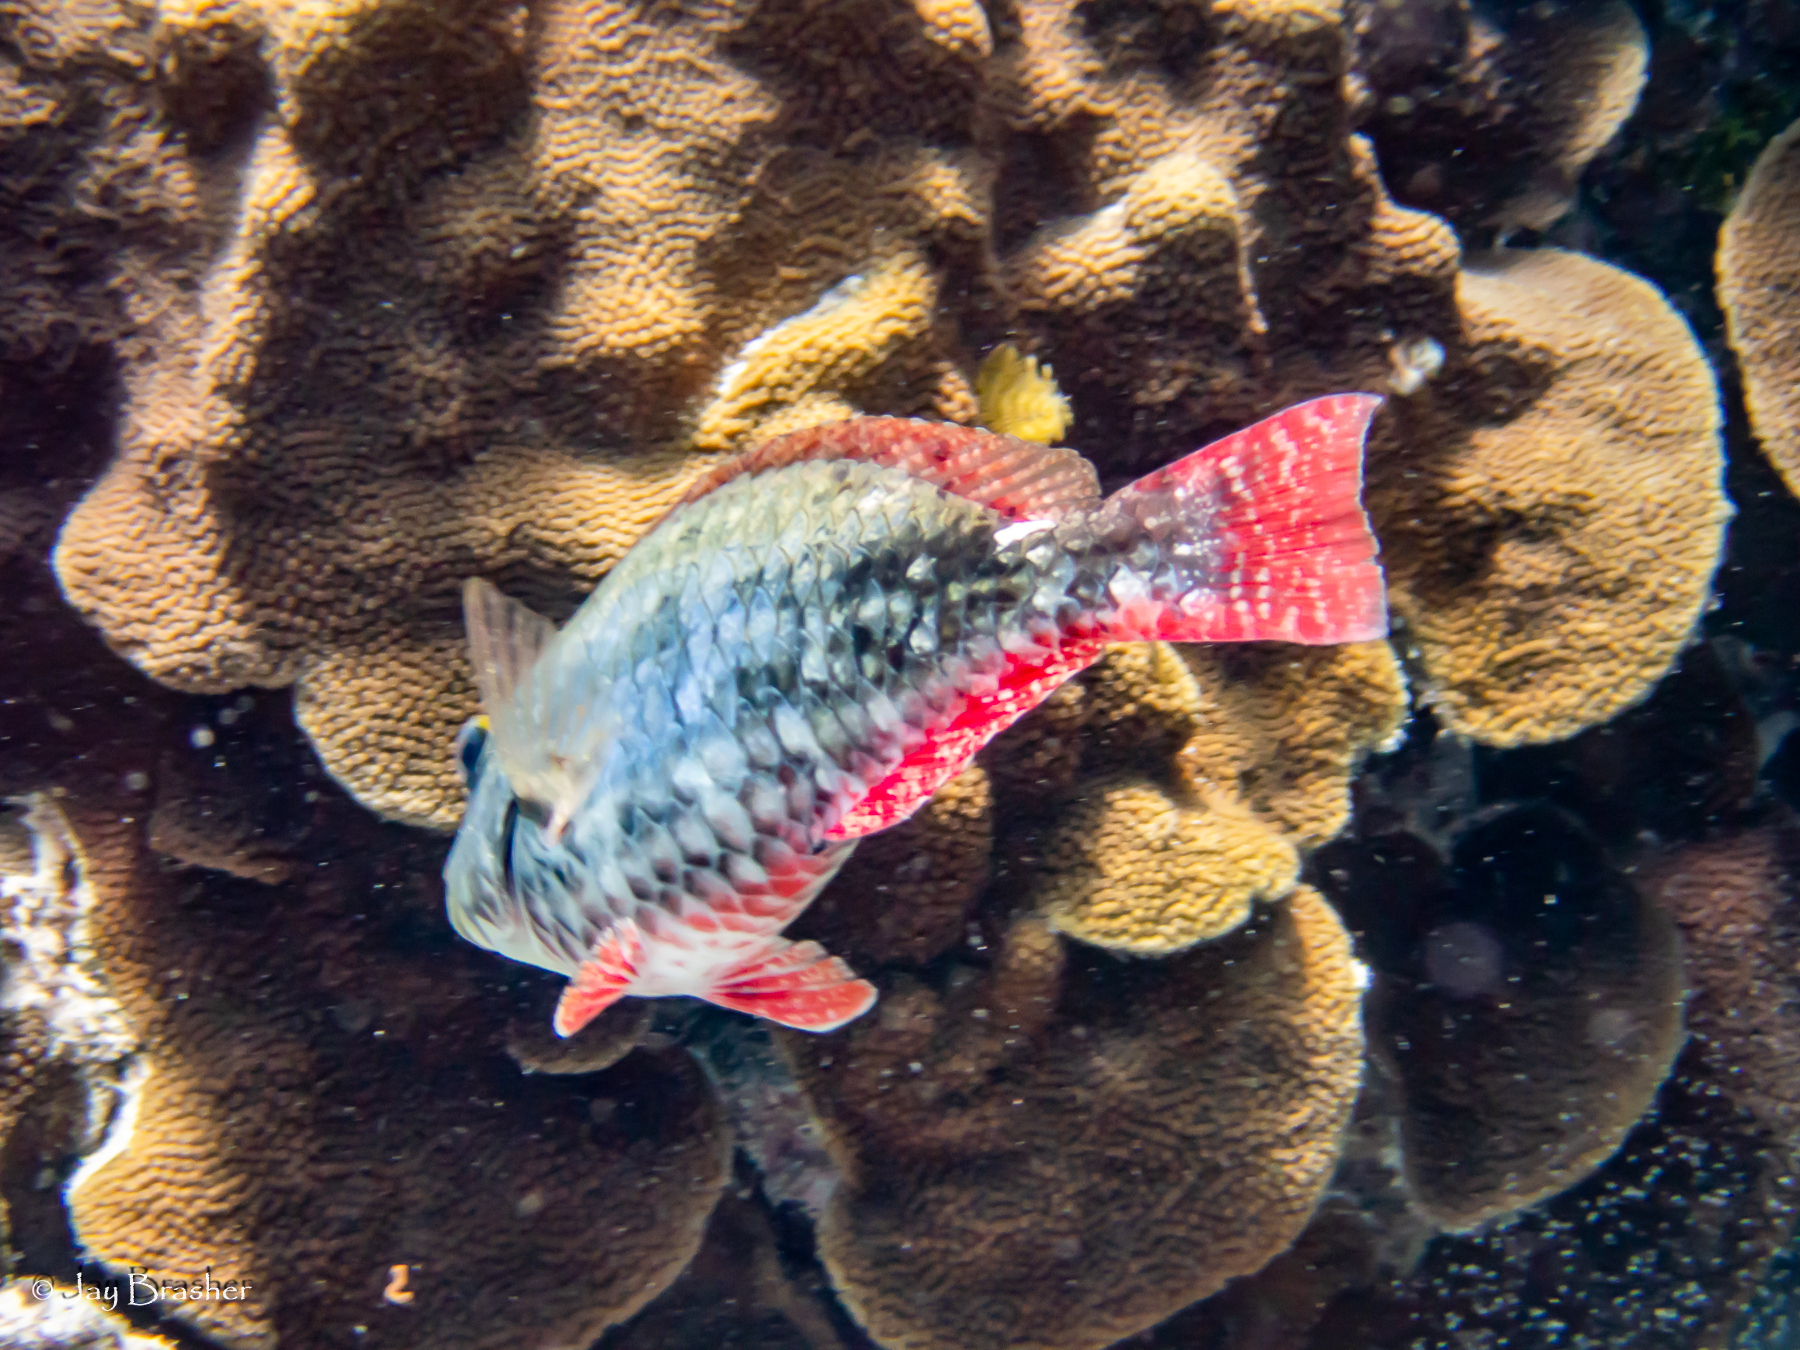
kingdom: Animalia
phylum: Chordata
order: Perciformes
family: Scaridae
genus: Sparisoma
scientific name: Sparisoma aurofrenatum
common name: Redband parrotfish
